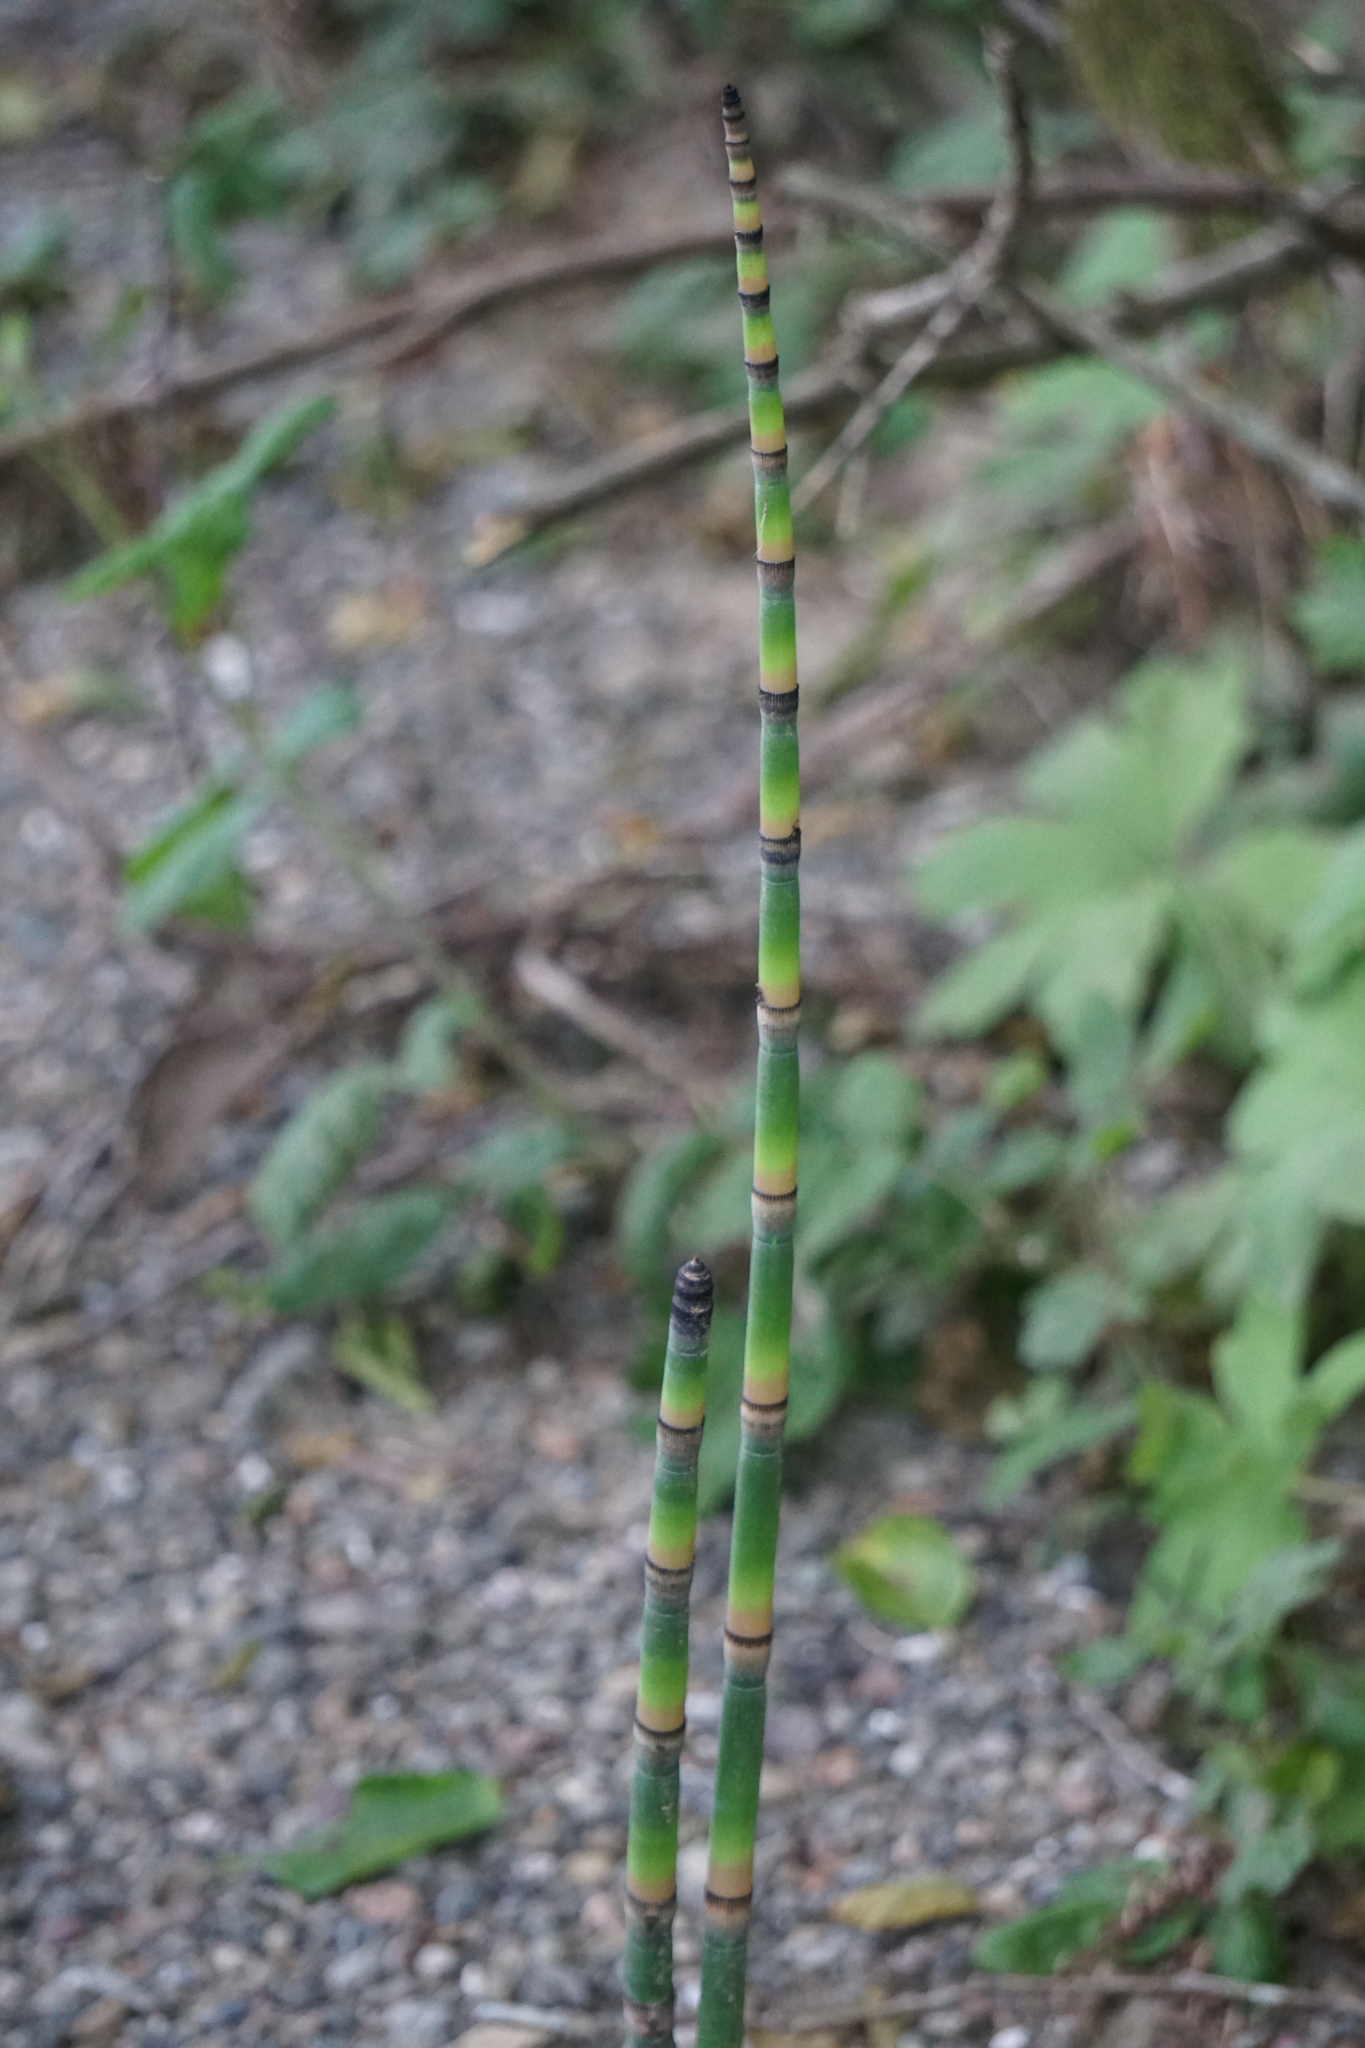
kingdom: Plantae
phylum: Tracheophyta
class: Polypodiopsida
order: Equisetales
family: Equisetaceae
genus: Equisetum
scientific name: Equisetum praealtum
